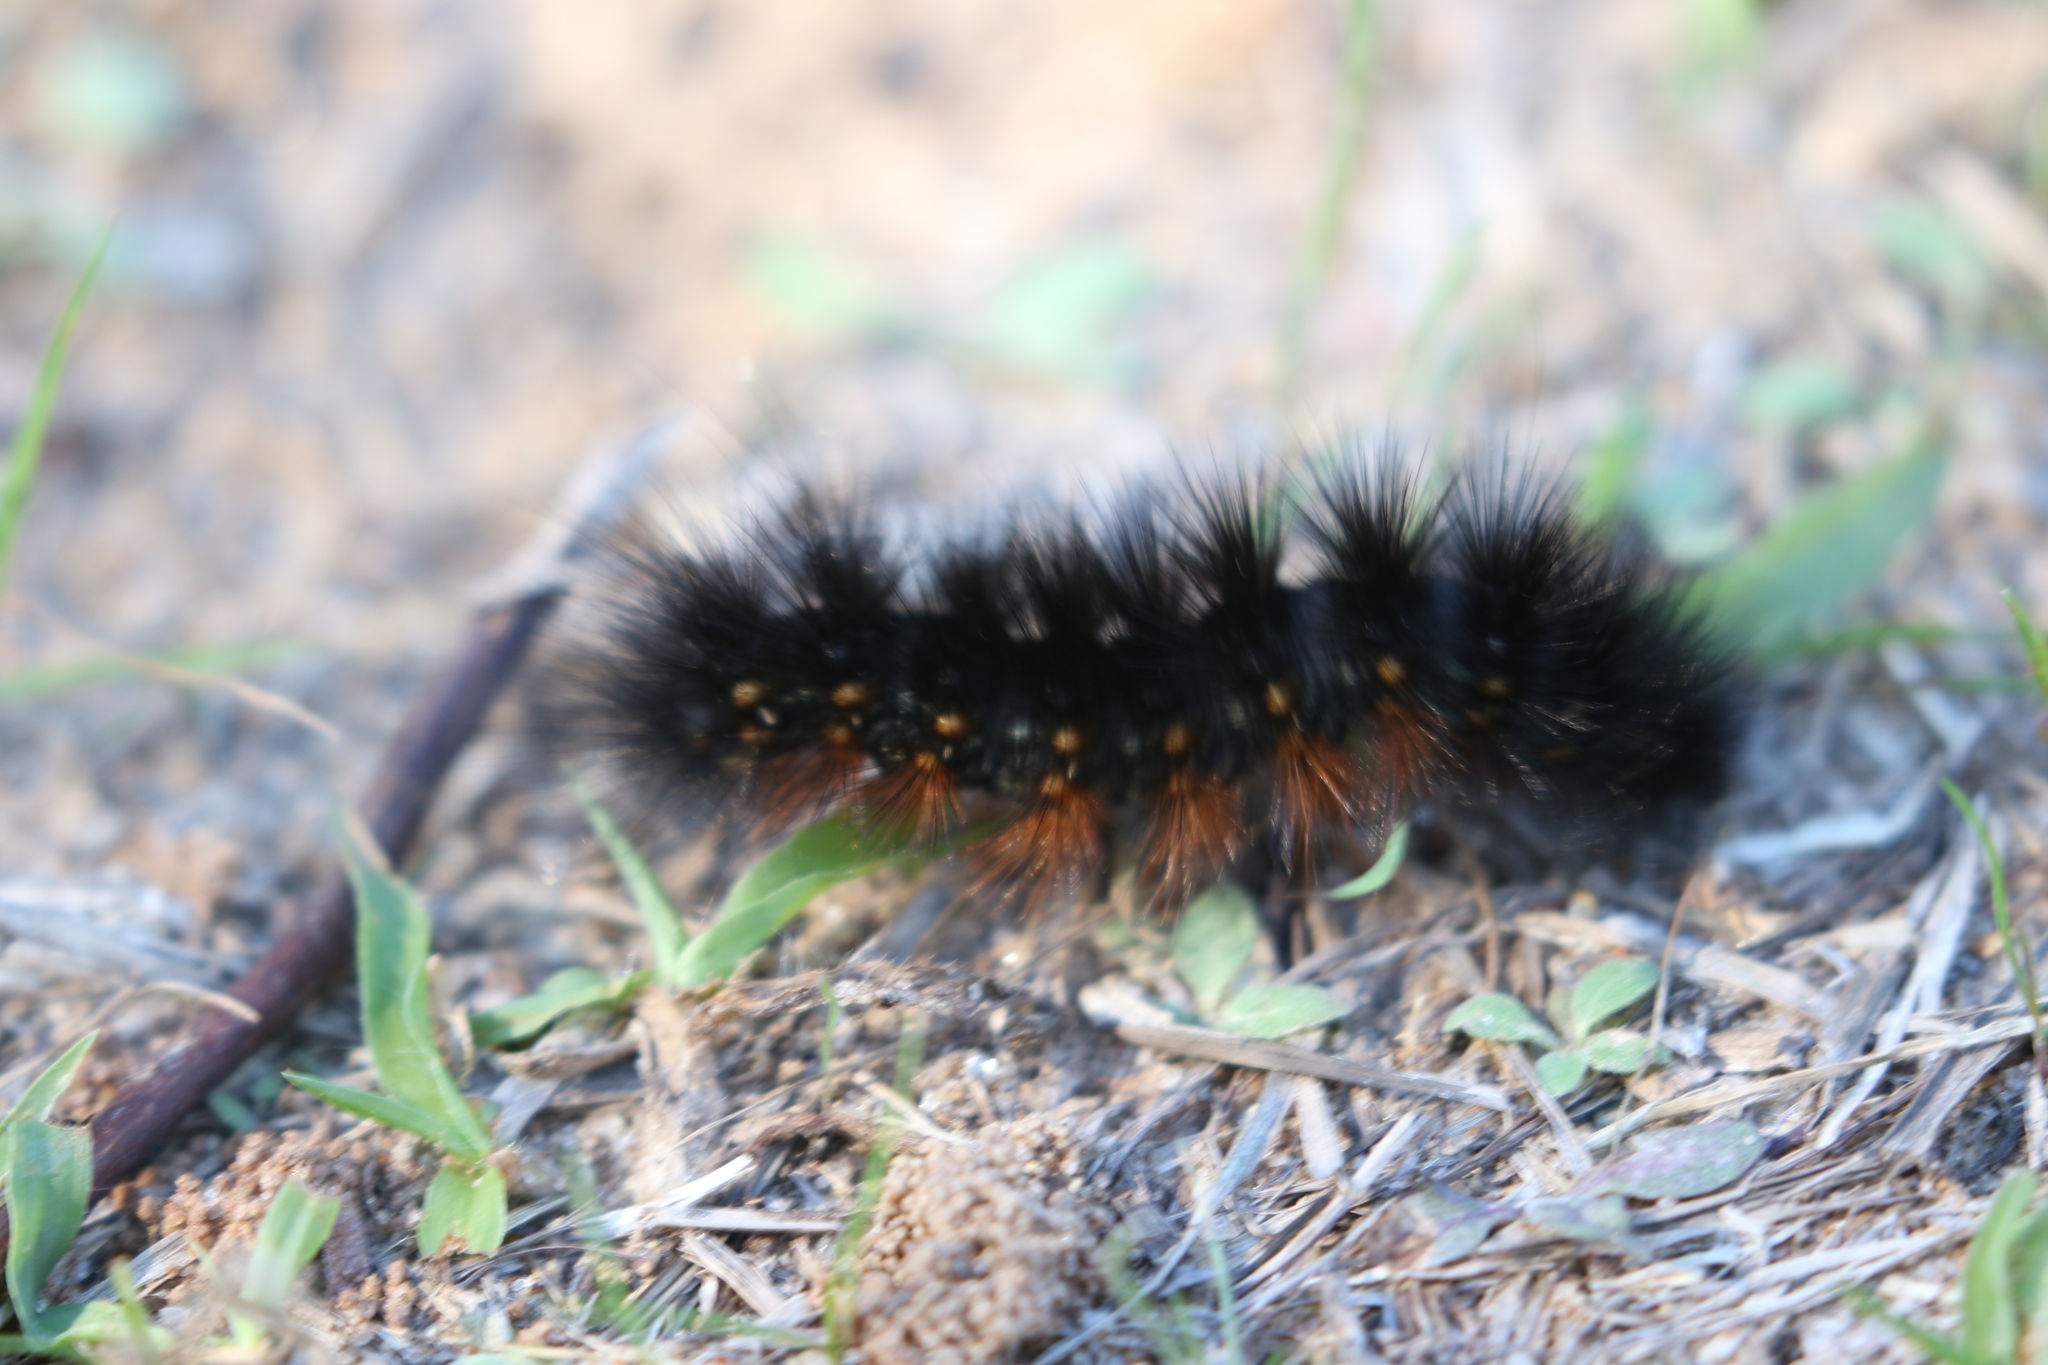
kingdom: Animalia
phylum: Arthropoda
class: Insecta
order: Lepidoptera
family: Erebidae
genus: Estigmene
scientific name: Estigmene acrea
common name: Salt marsh moth
